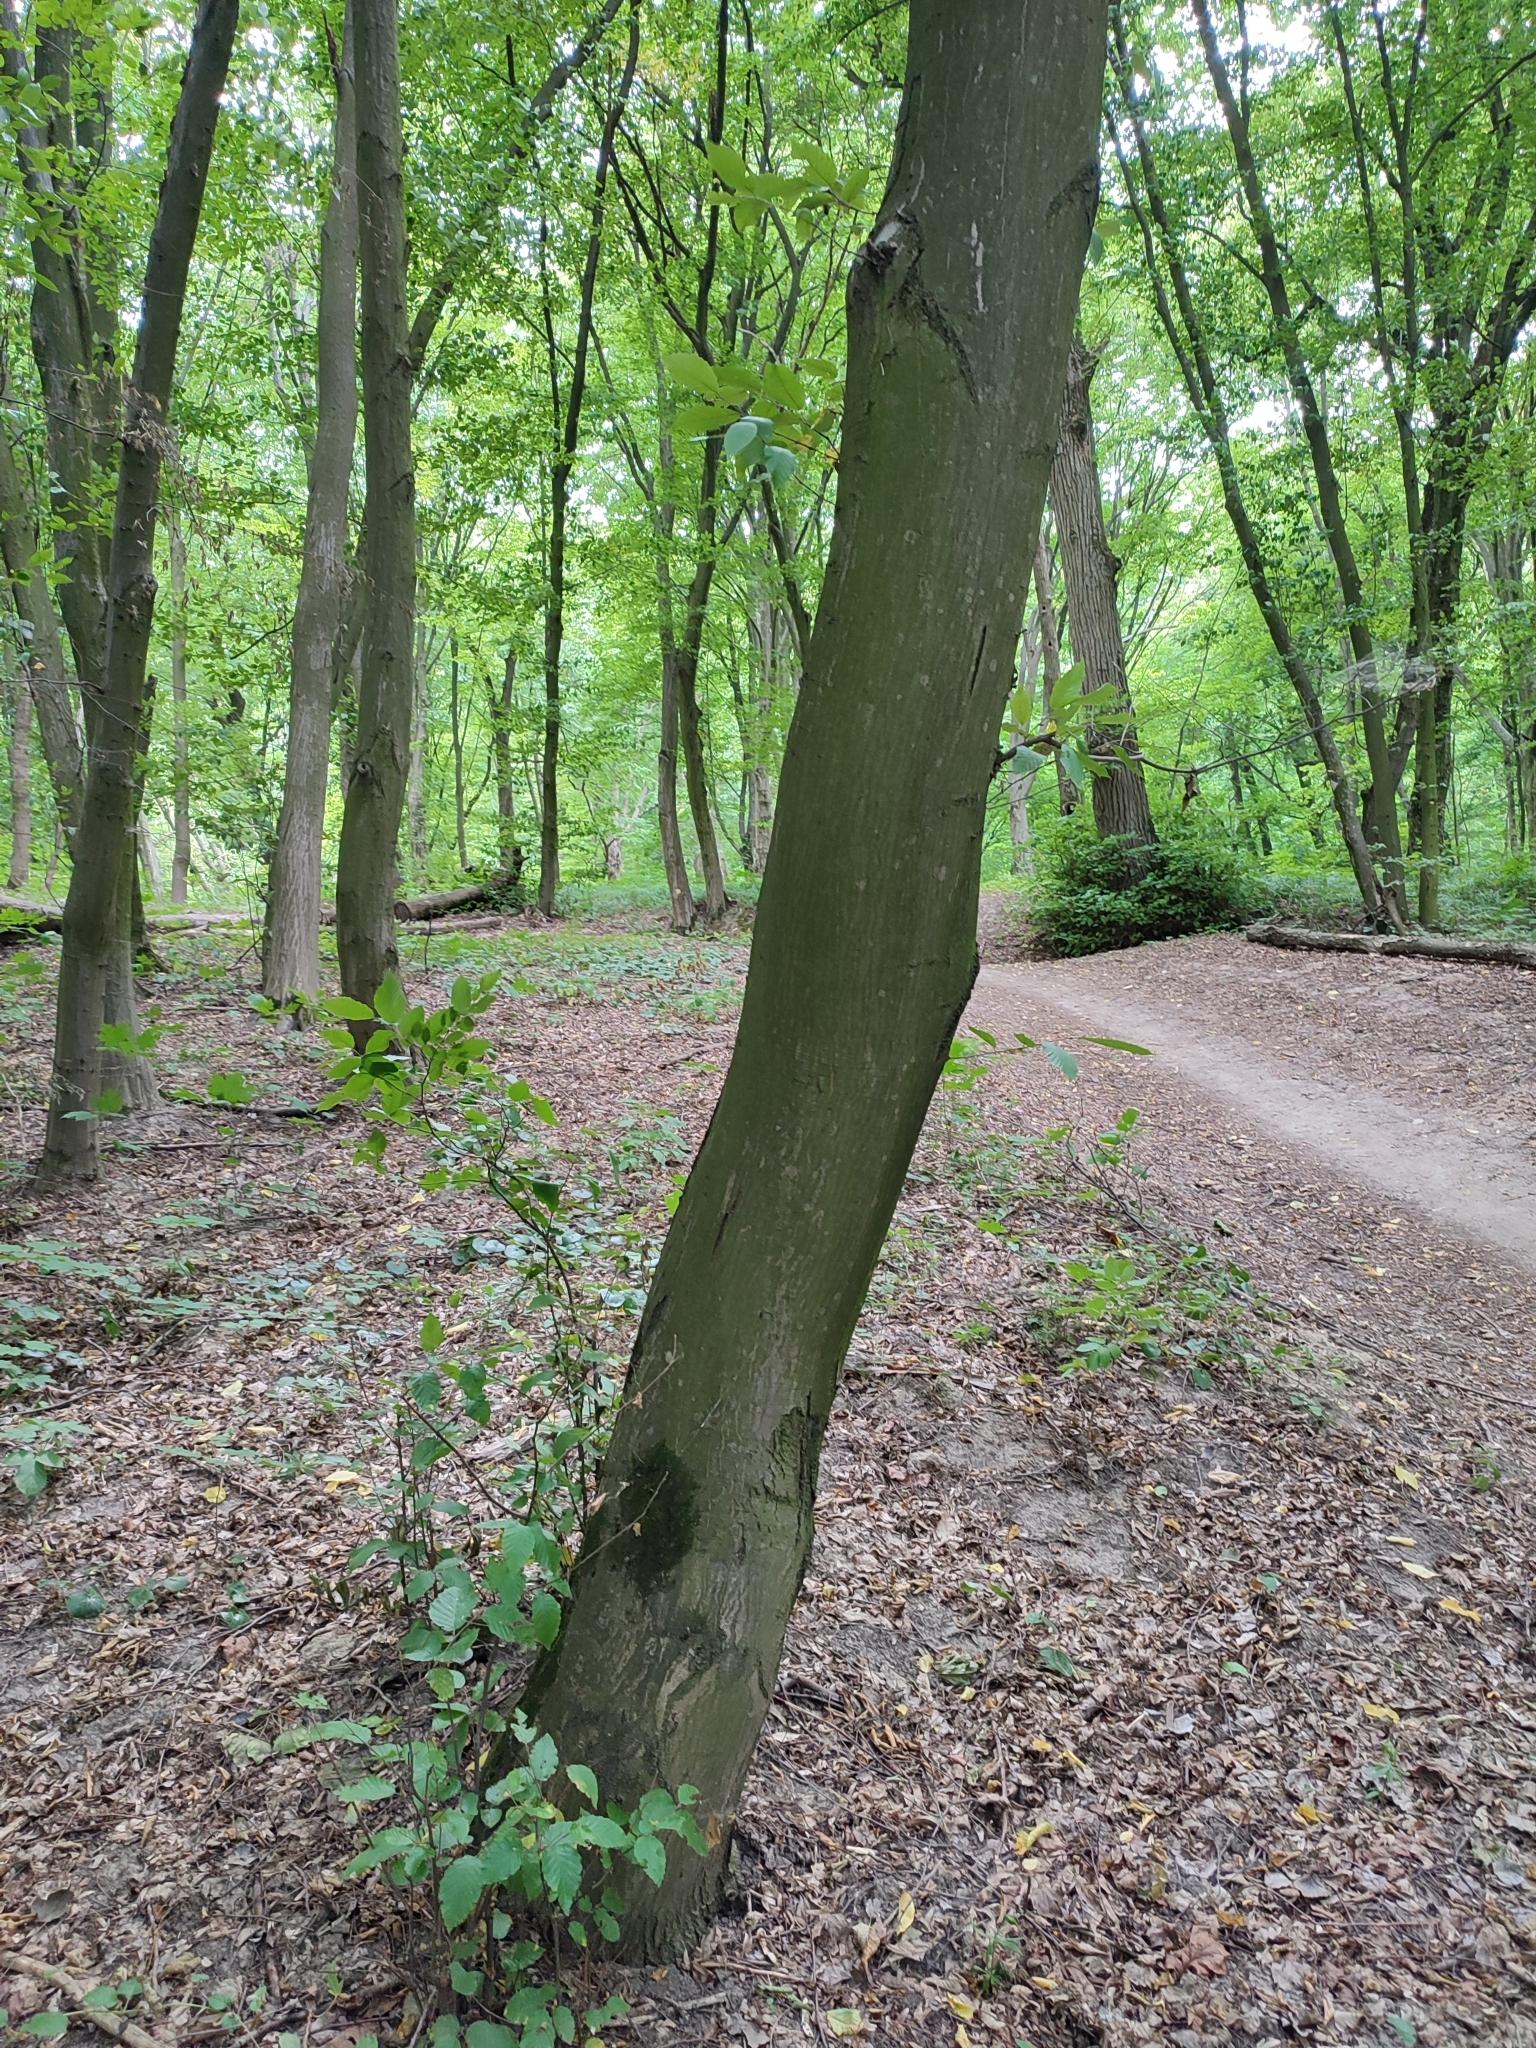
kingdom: Plantae
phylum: Tracheophyta
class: Magnoliopsida
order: Fagales
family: Betulaceae
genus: Carpinus
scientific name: Carpinus betulus
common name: Hornbeam
